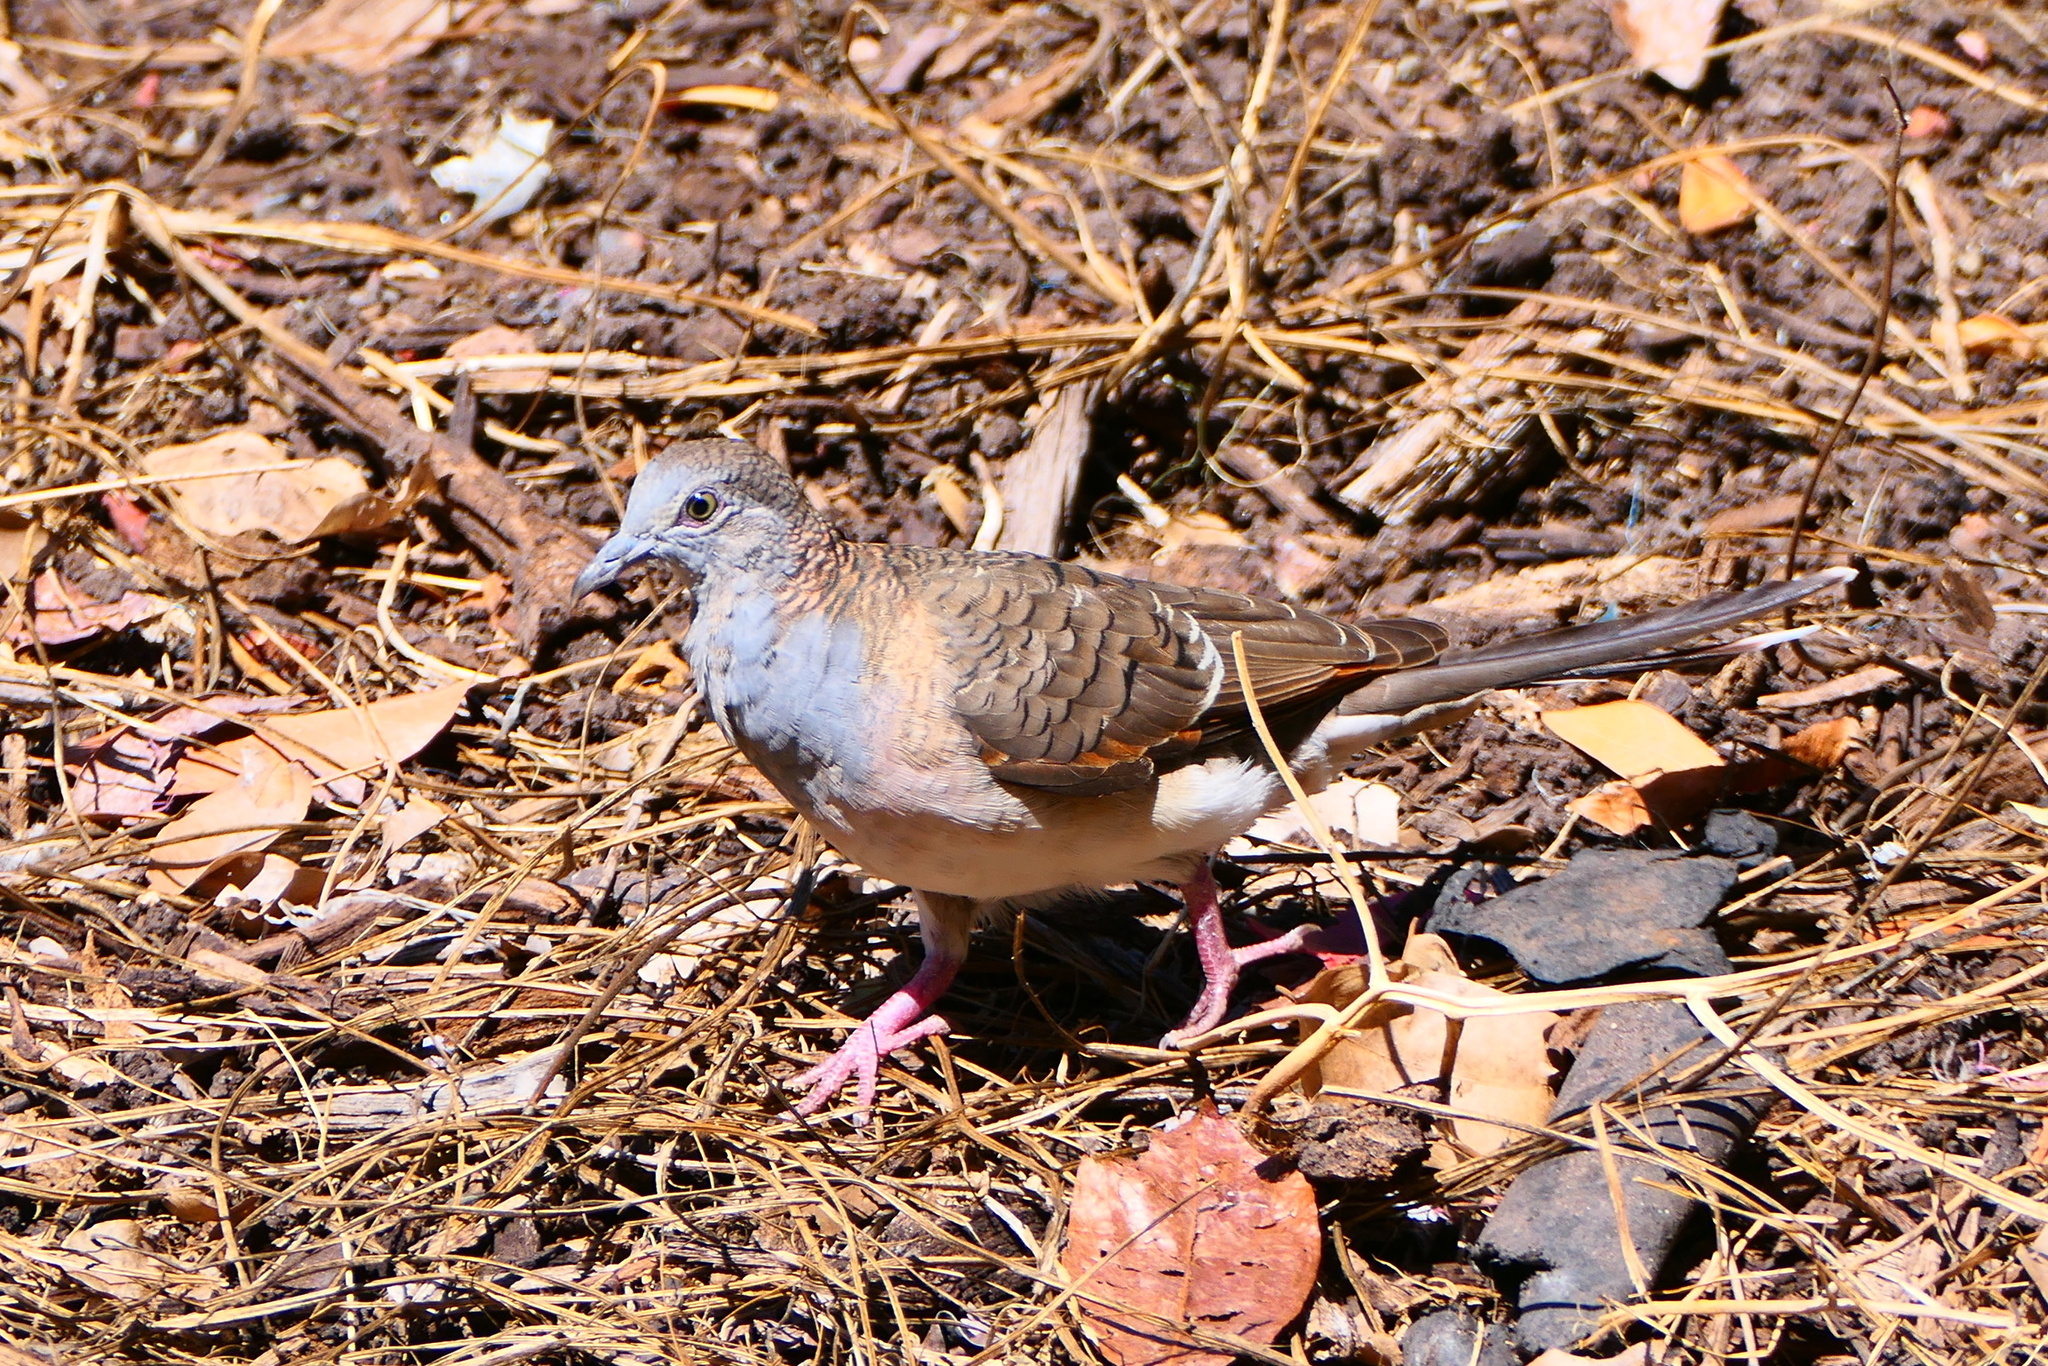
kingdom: Animalia
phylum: Chordata
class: Aves
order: Columbiformes
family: Columbidae
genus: Geopelia
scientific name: Geopelia humeralis
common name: Bar-shouldered dove
